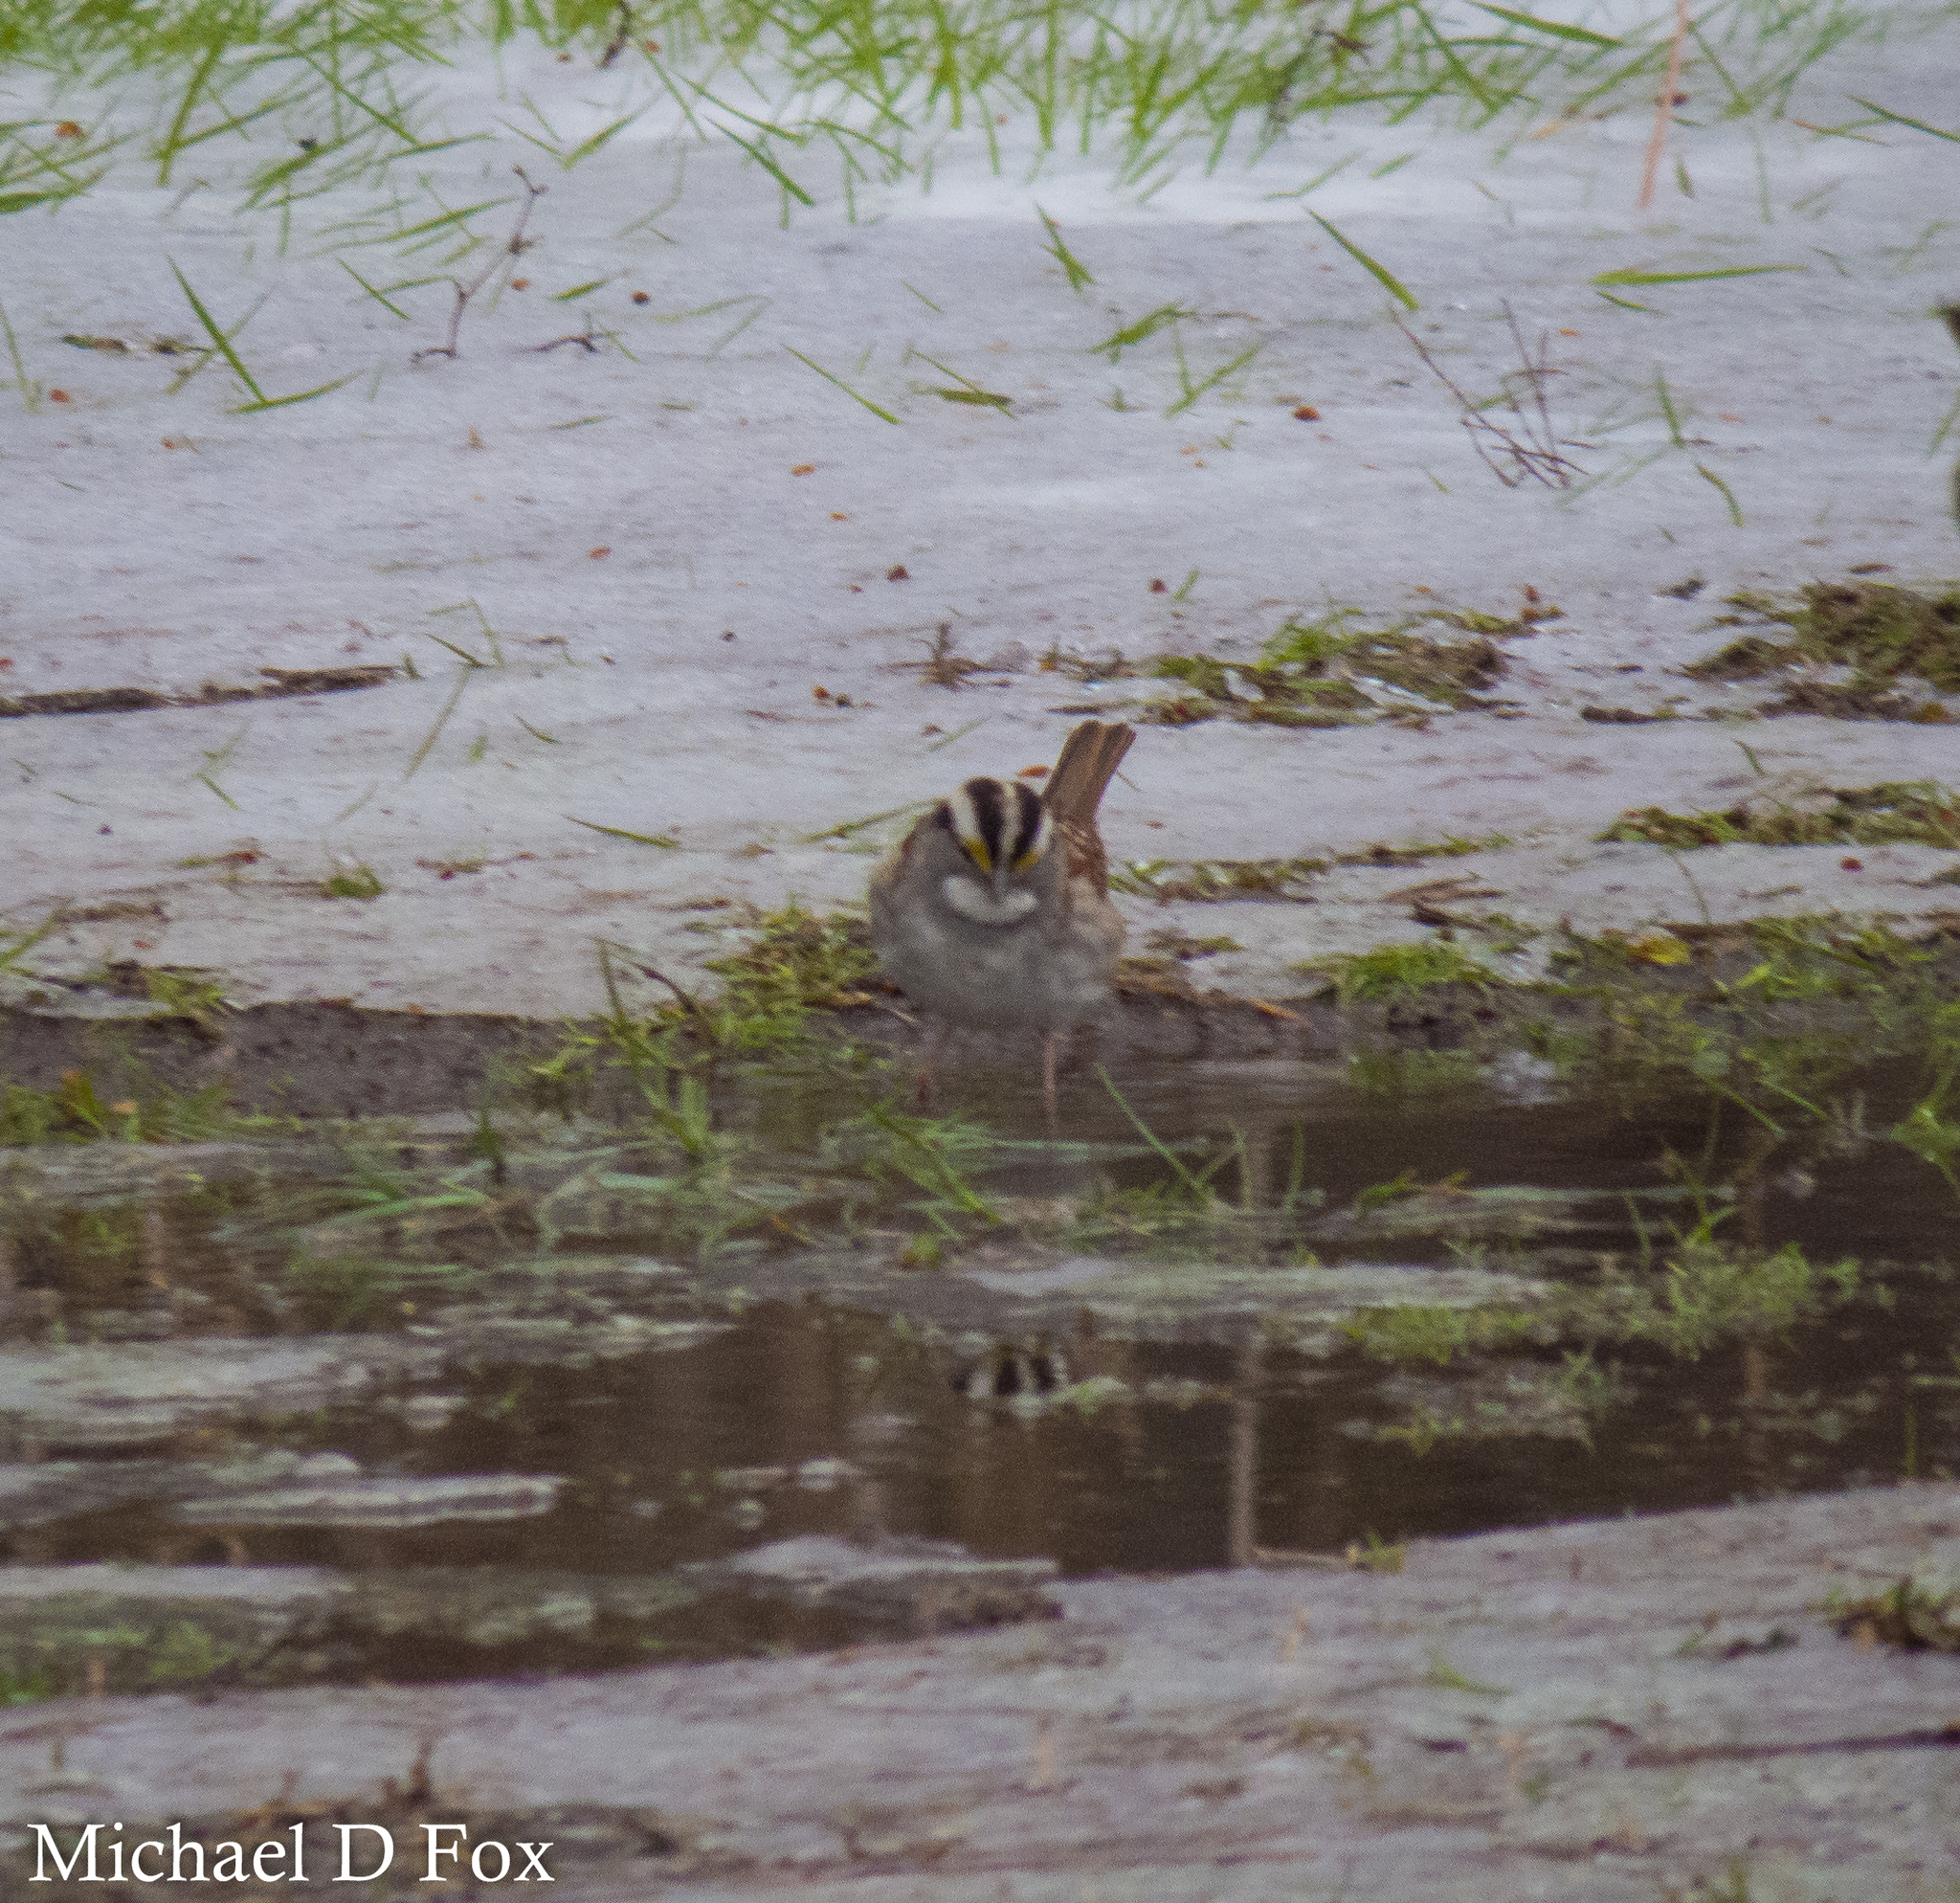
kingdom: Animalia
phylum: Chordata
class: Aves
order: Passeriformes
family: Passerellidae
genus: Zonotrichia
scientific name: Zonotrichia albicollis
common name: White-throated sparrow
